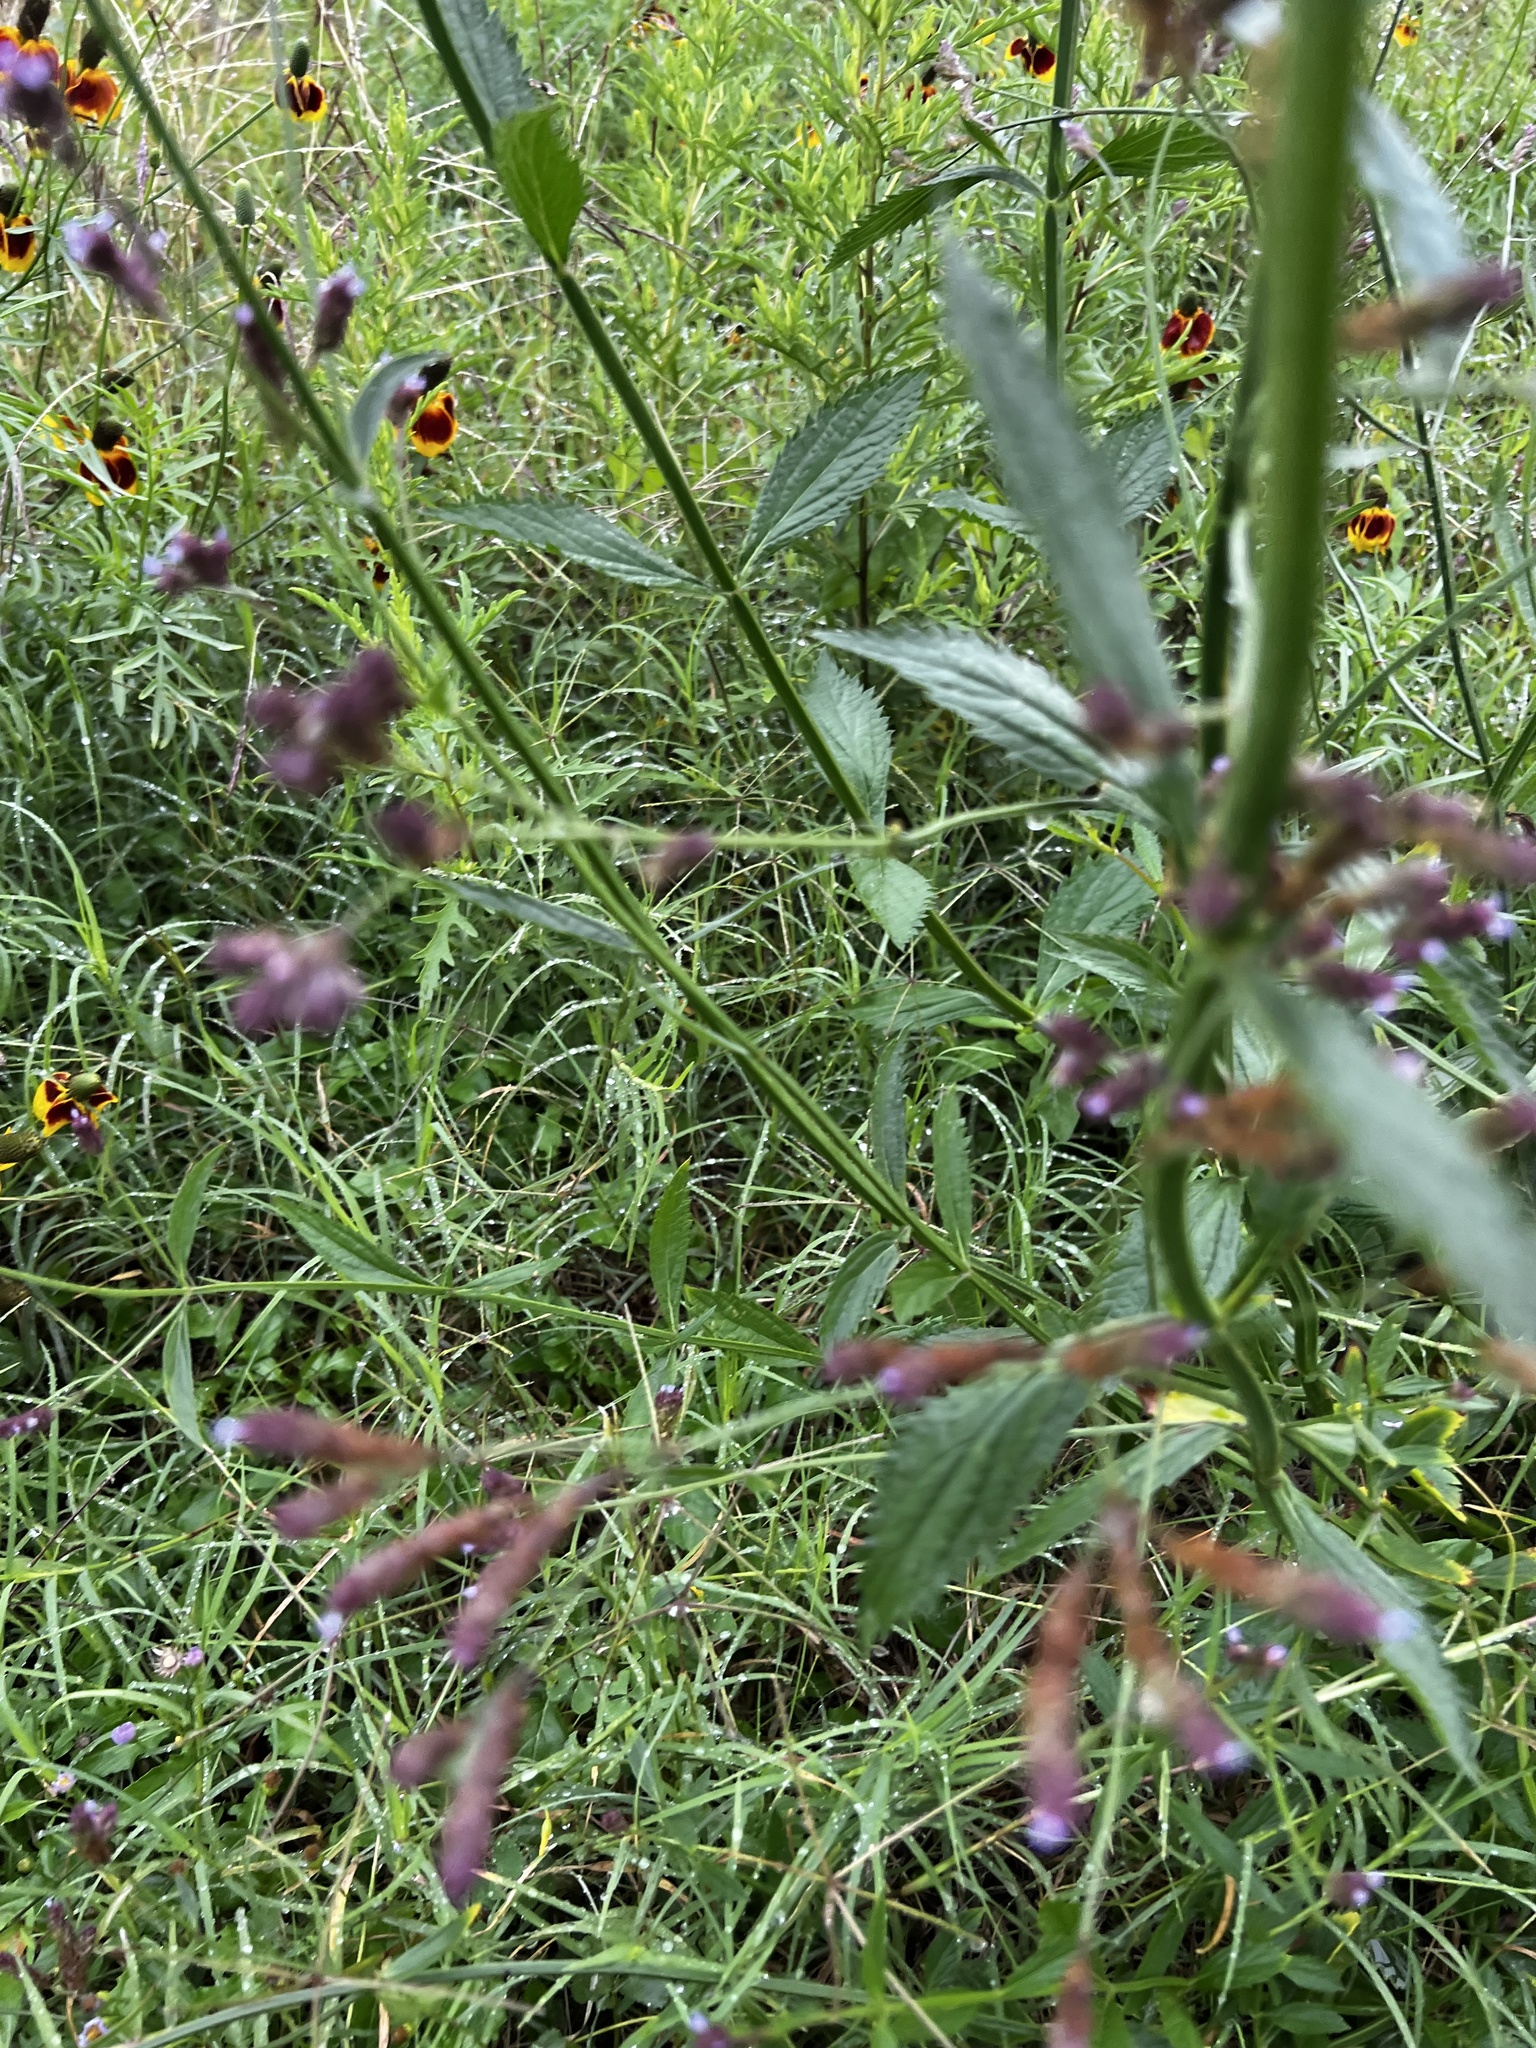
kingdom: Plantae
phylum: Tracheophyta
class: Magnoliopsida
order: Lamiales
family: Verbenaceae
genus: Verbena
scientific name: Verbena brasiliensis
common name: Brazilian vervain
